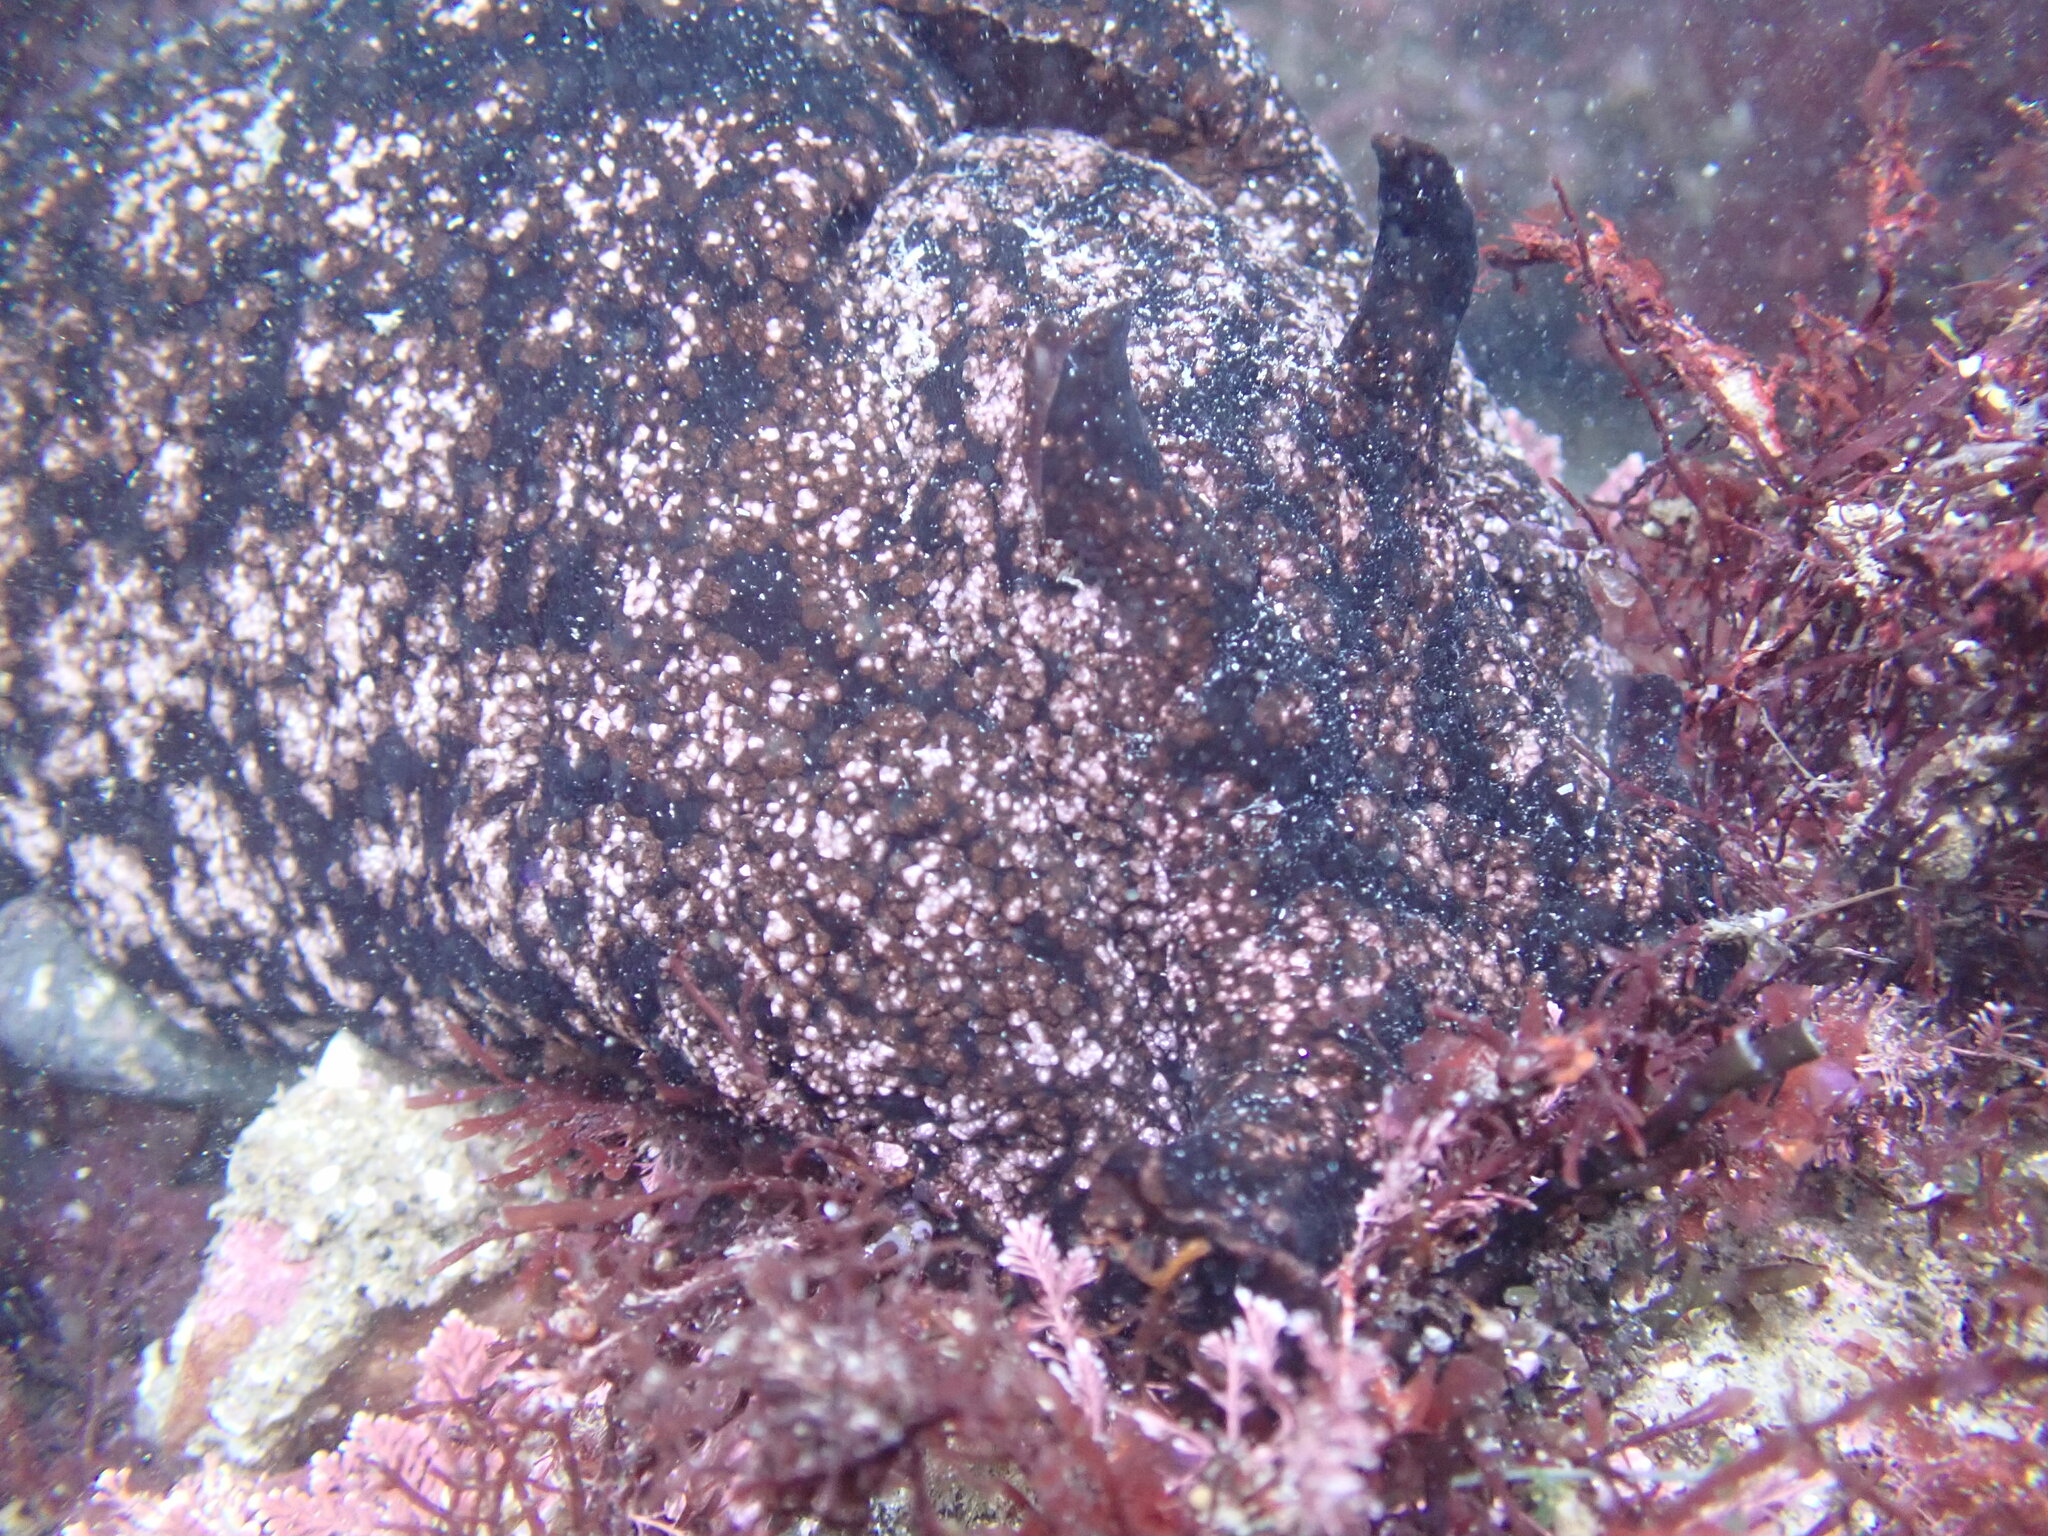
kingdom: Animalia
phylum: Mollusca
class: Gastropoda
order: Aplysiida
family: Aplysiidae
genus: Aplysia
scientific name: Aplysia vaccaria
